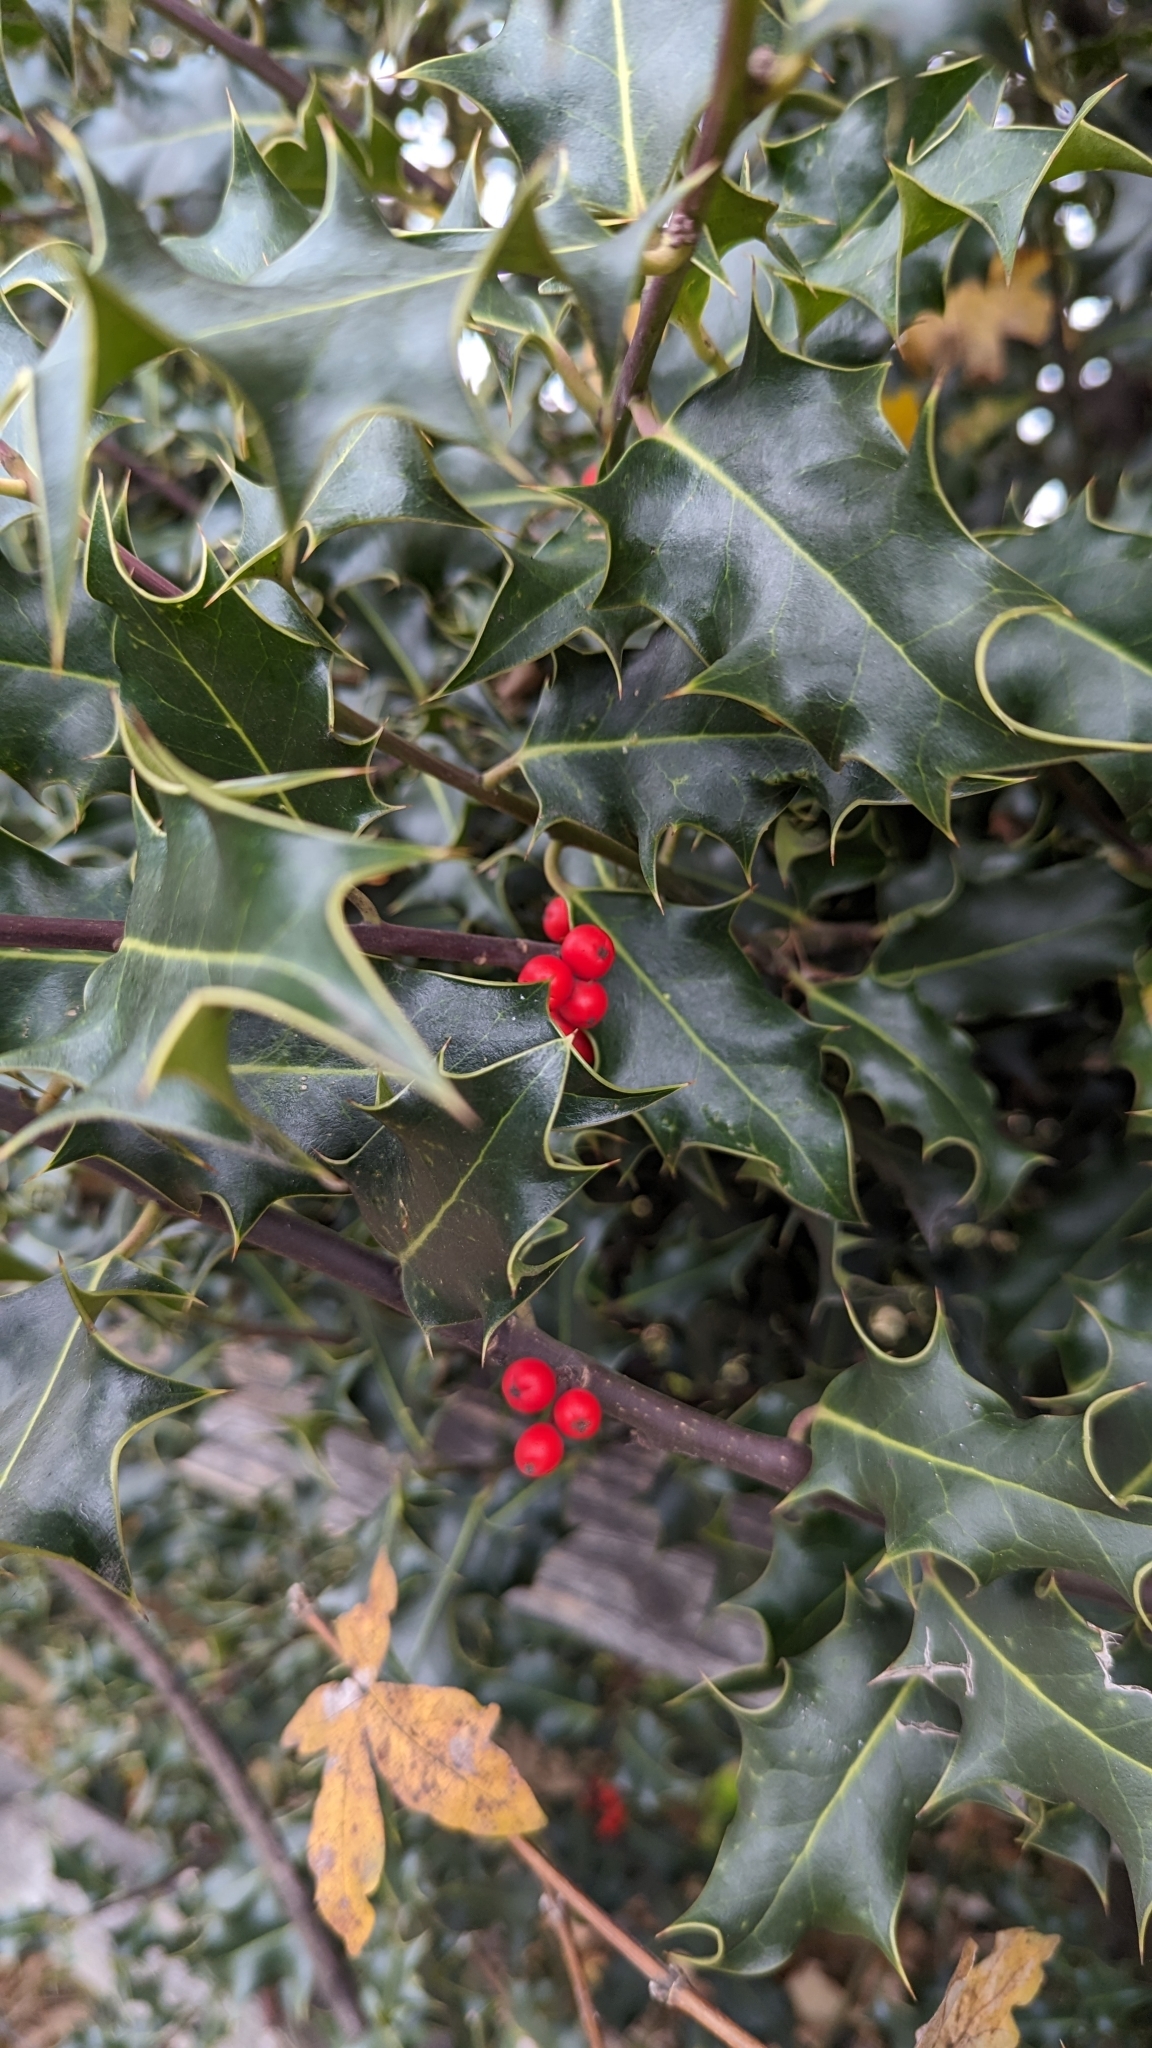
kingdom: Plantae
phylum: Tracheophyta
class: Magnoliopsida
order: Aquifoliales
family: Aquifoliaceae
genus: Ilex
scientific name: Ilex aquifolium
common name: English holly
